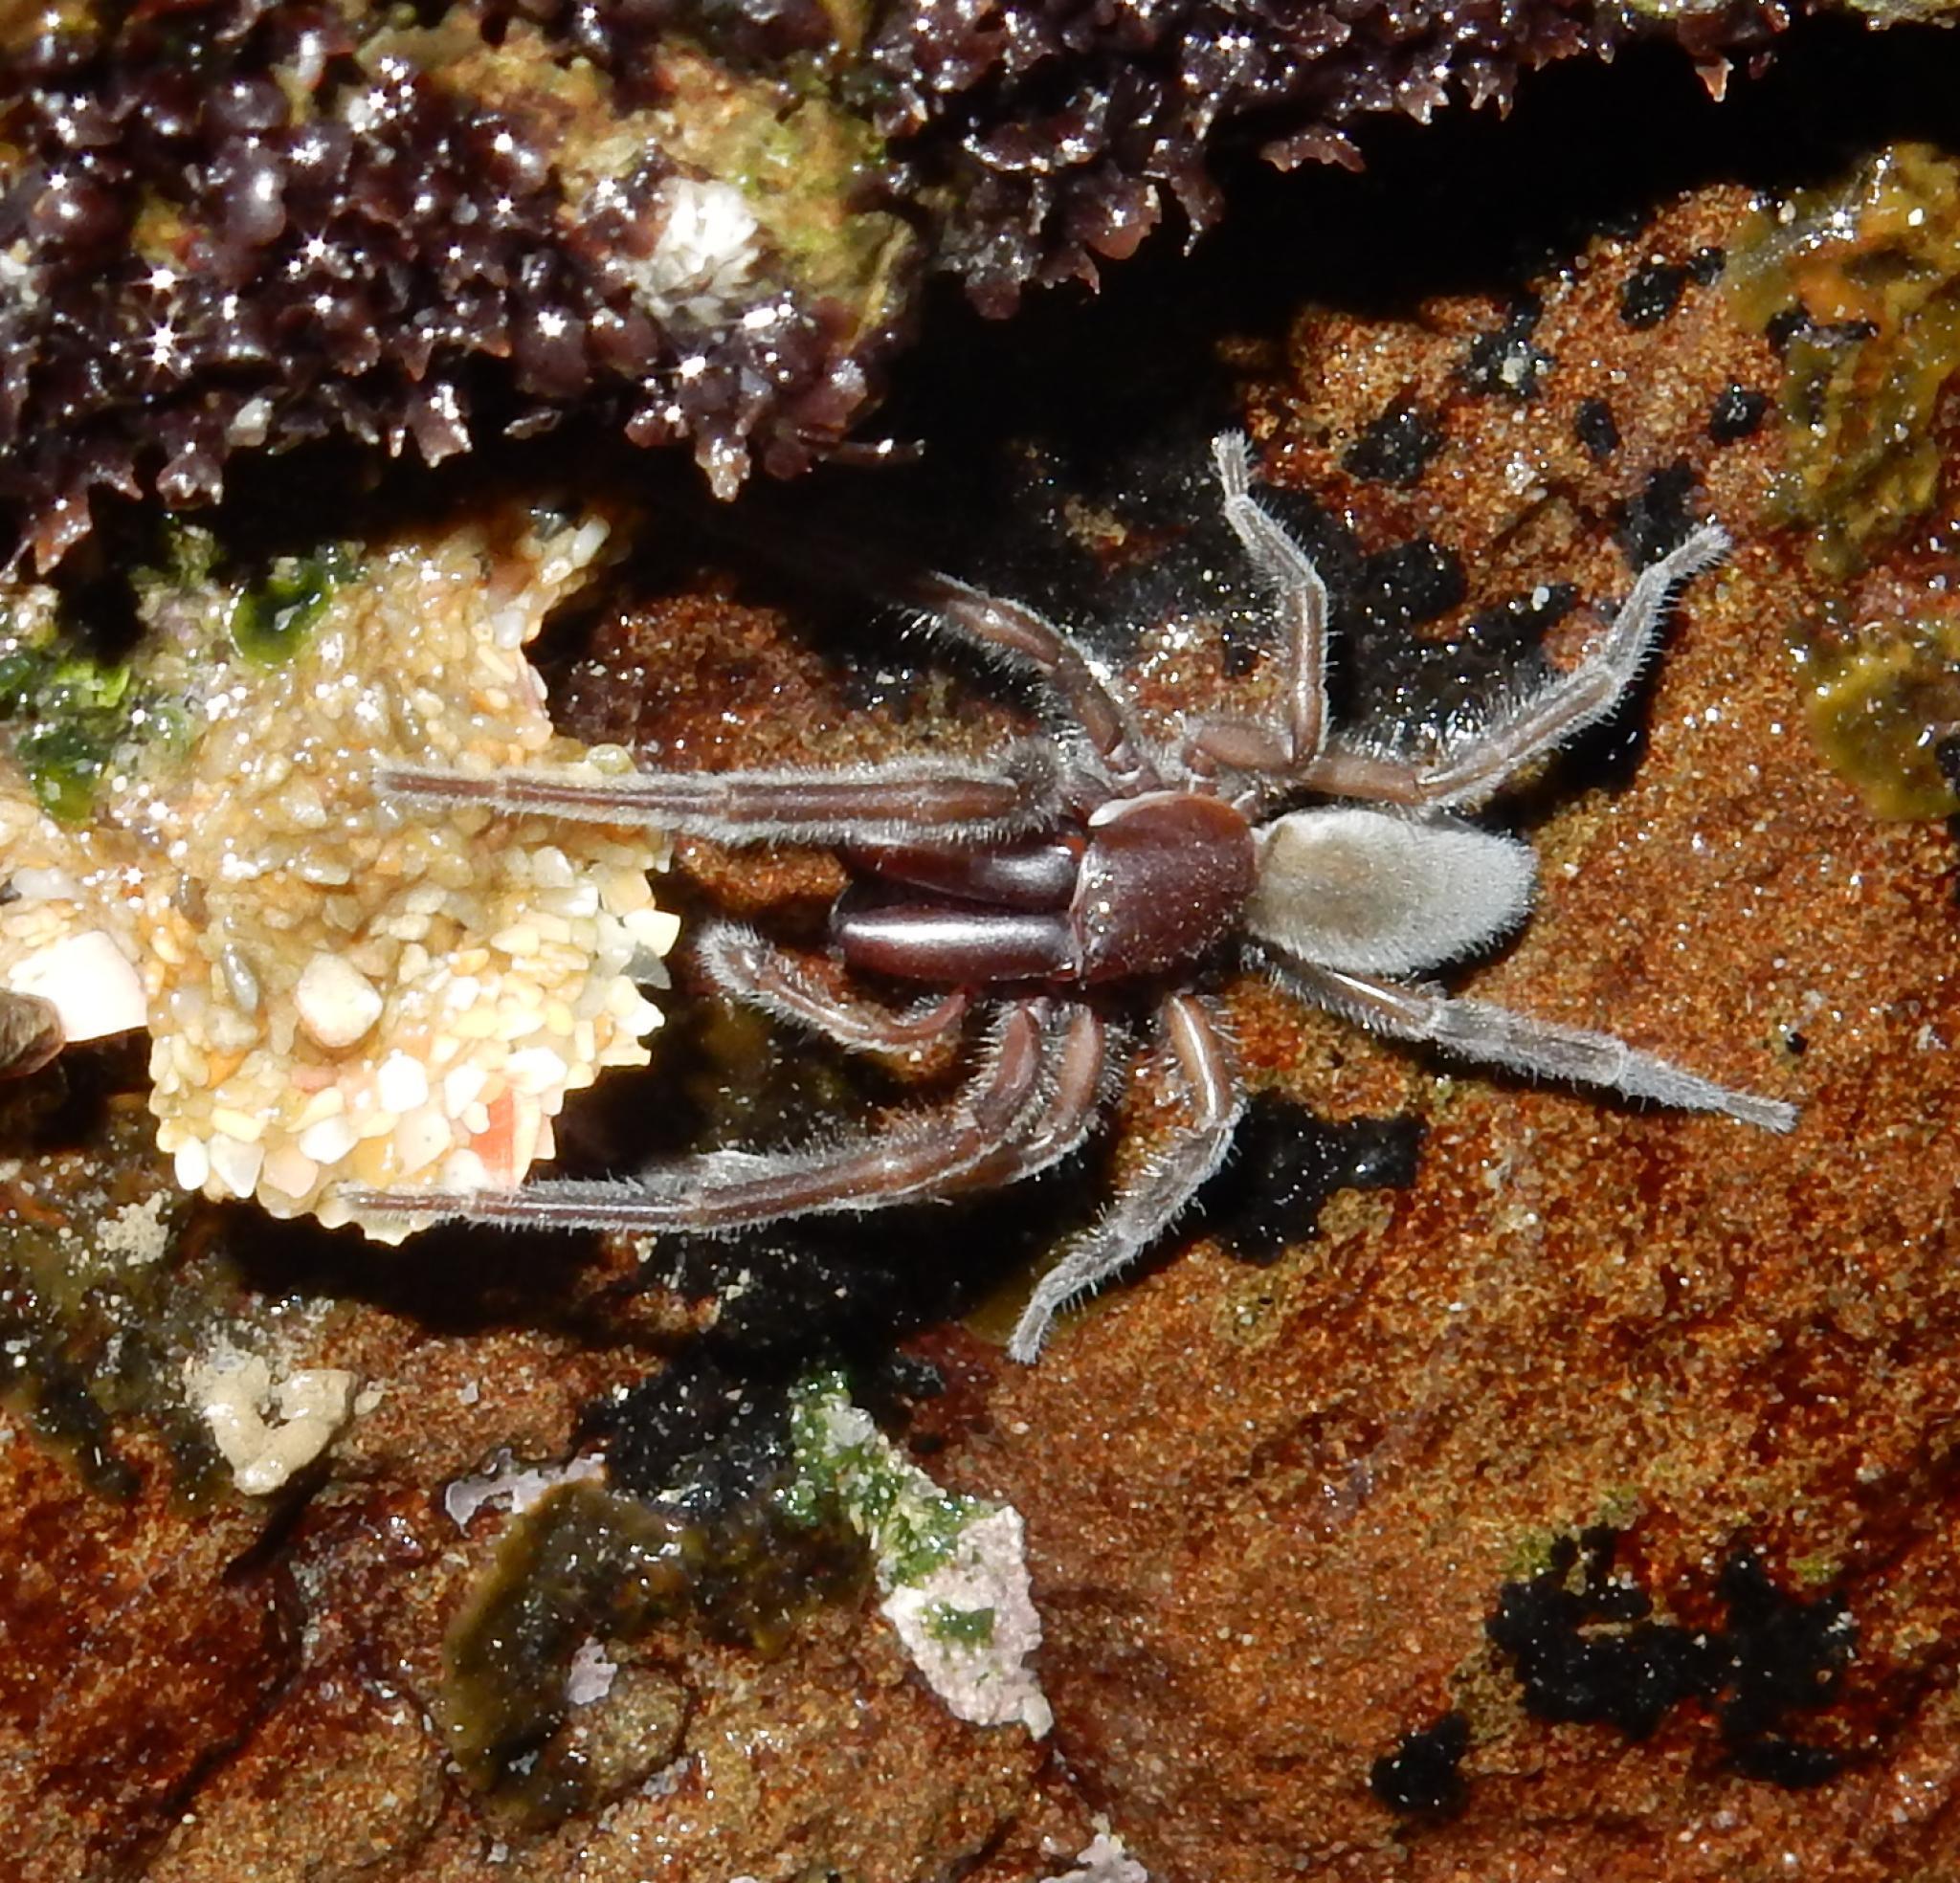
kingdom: Animalia
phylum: Arthropoda
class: Arachnida
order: Araneae
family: Desidae
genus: Desis
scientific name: Desis formidabilis
